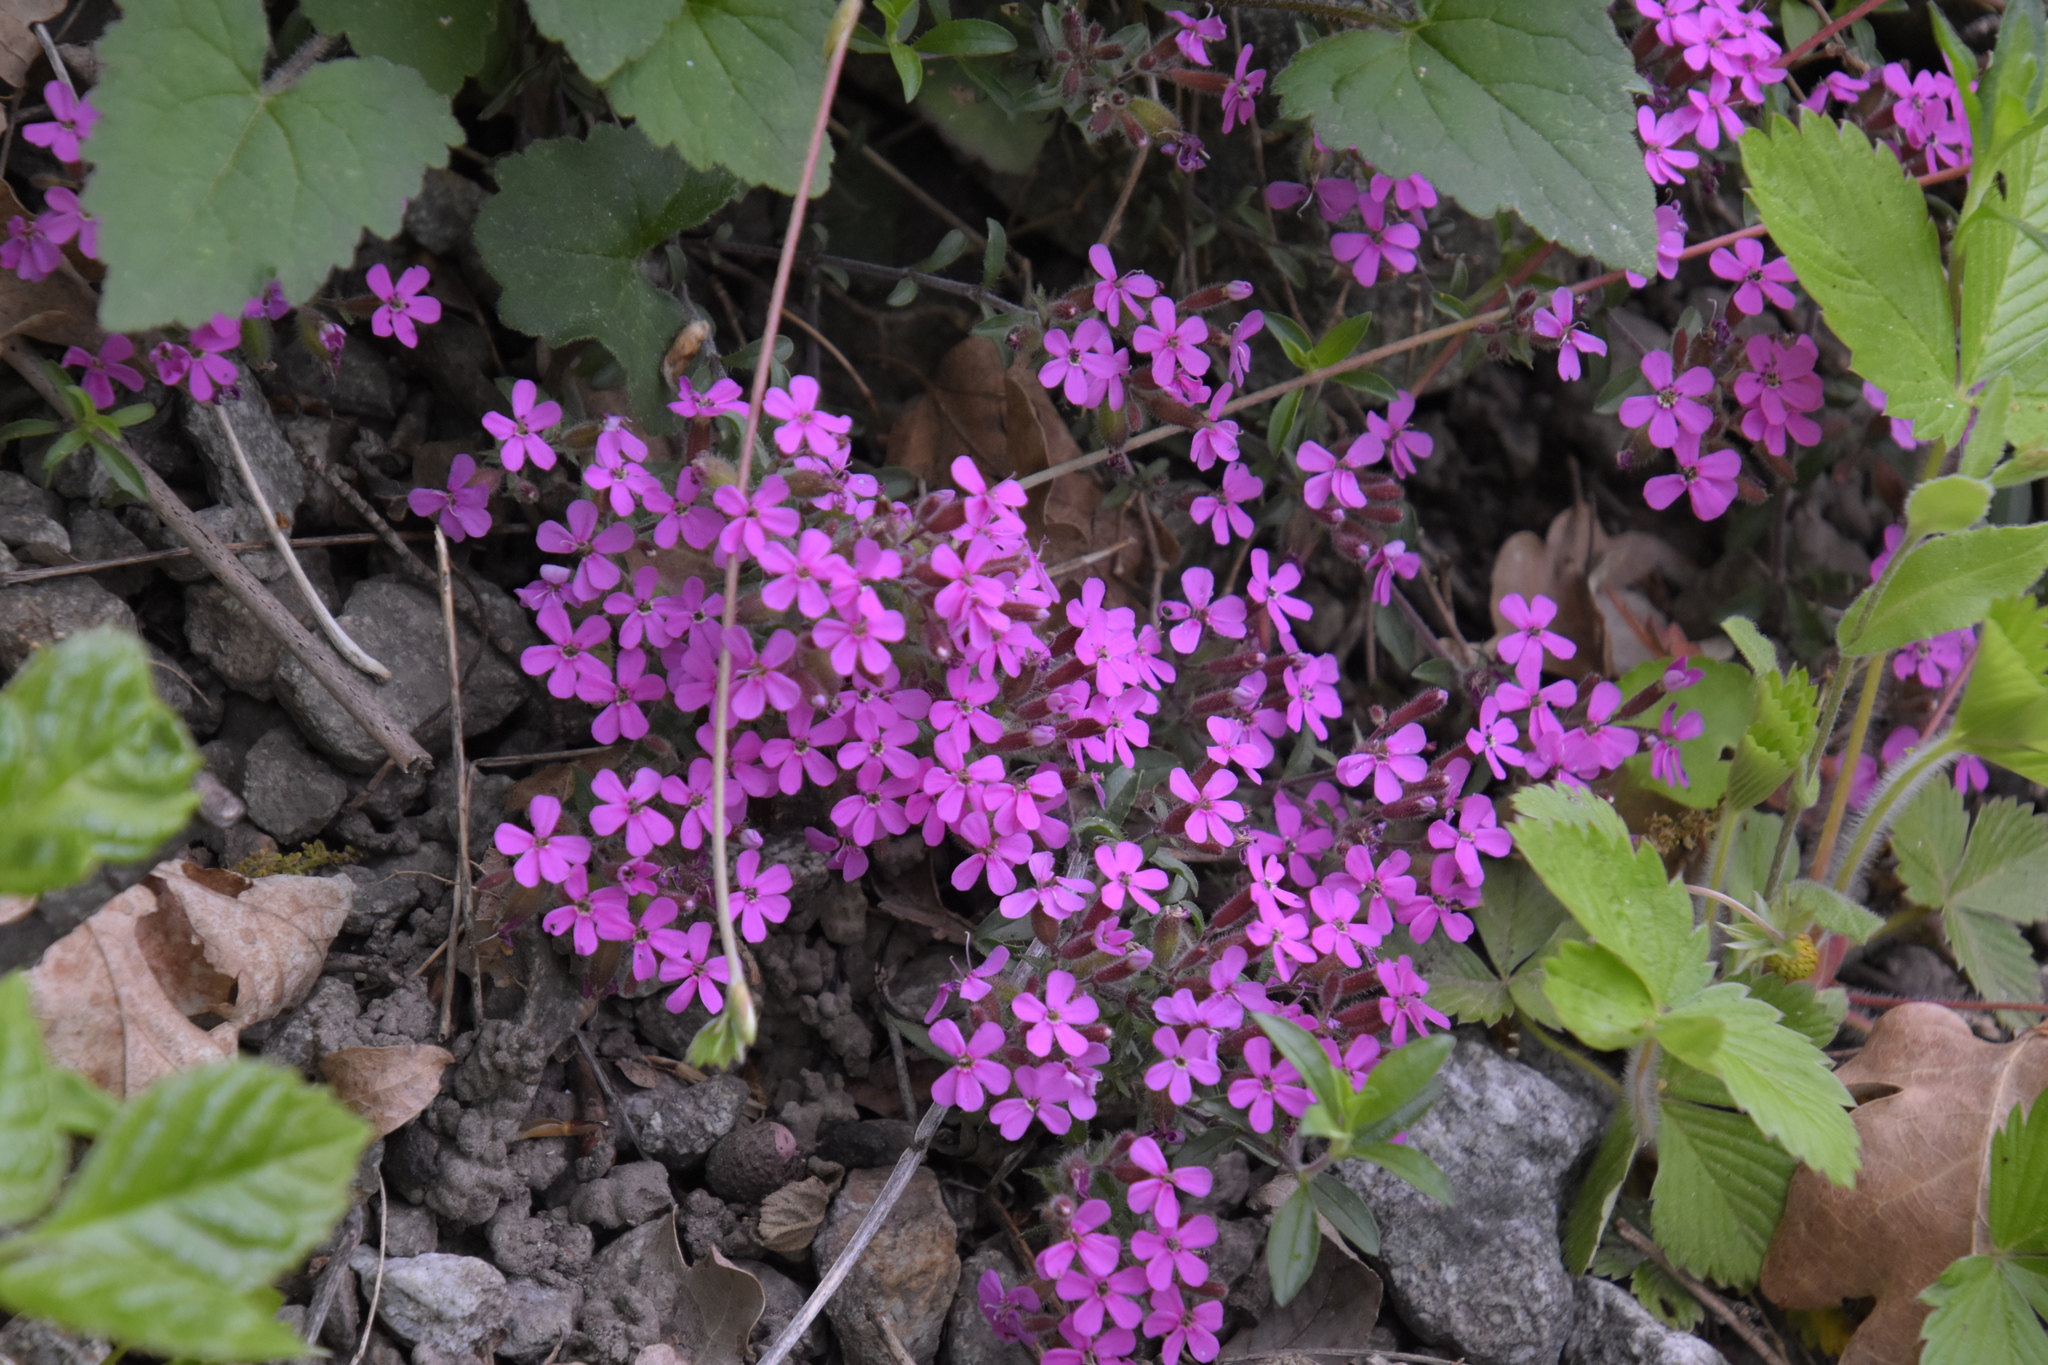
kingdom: Plantae
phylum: Tracheophyta
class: Magnoliopsida
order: Caryophyllales
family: Caryophyllaceae
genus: Saponaria
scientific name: Saponaria ocymoides
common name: Rock soapwort
